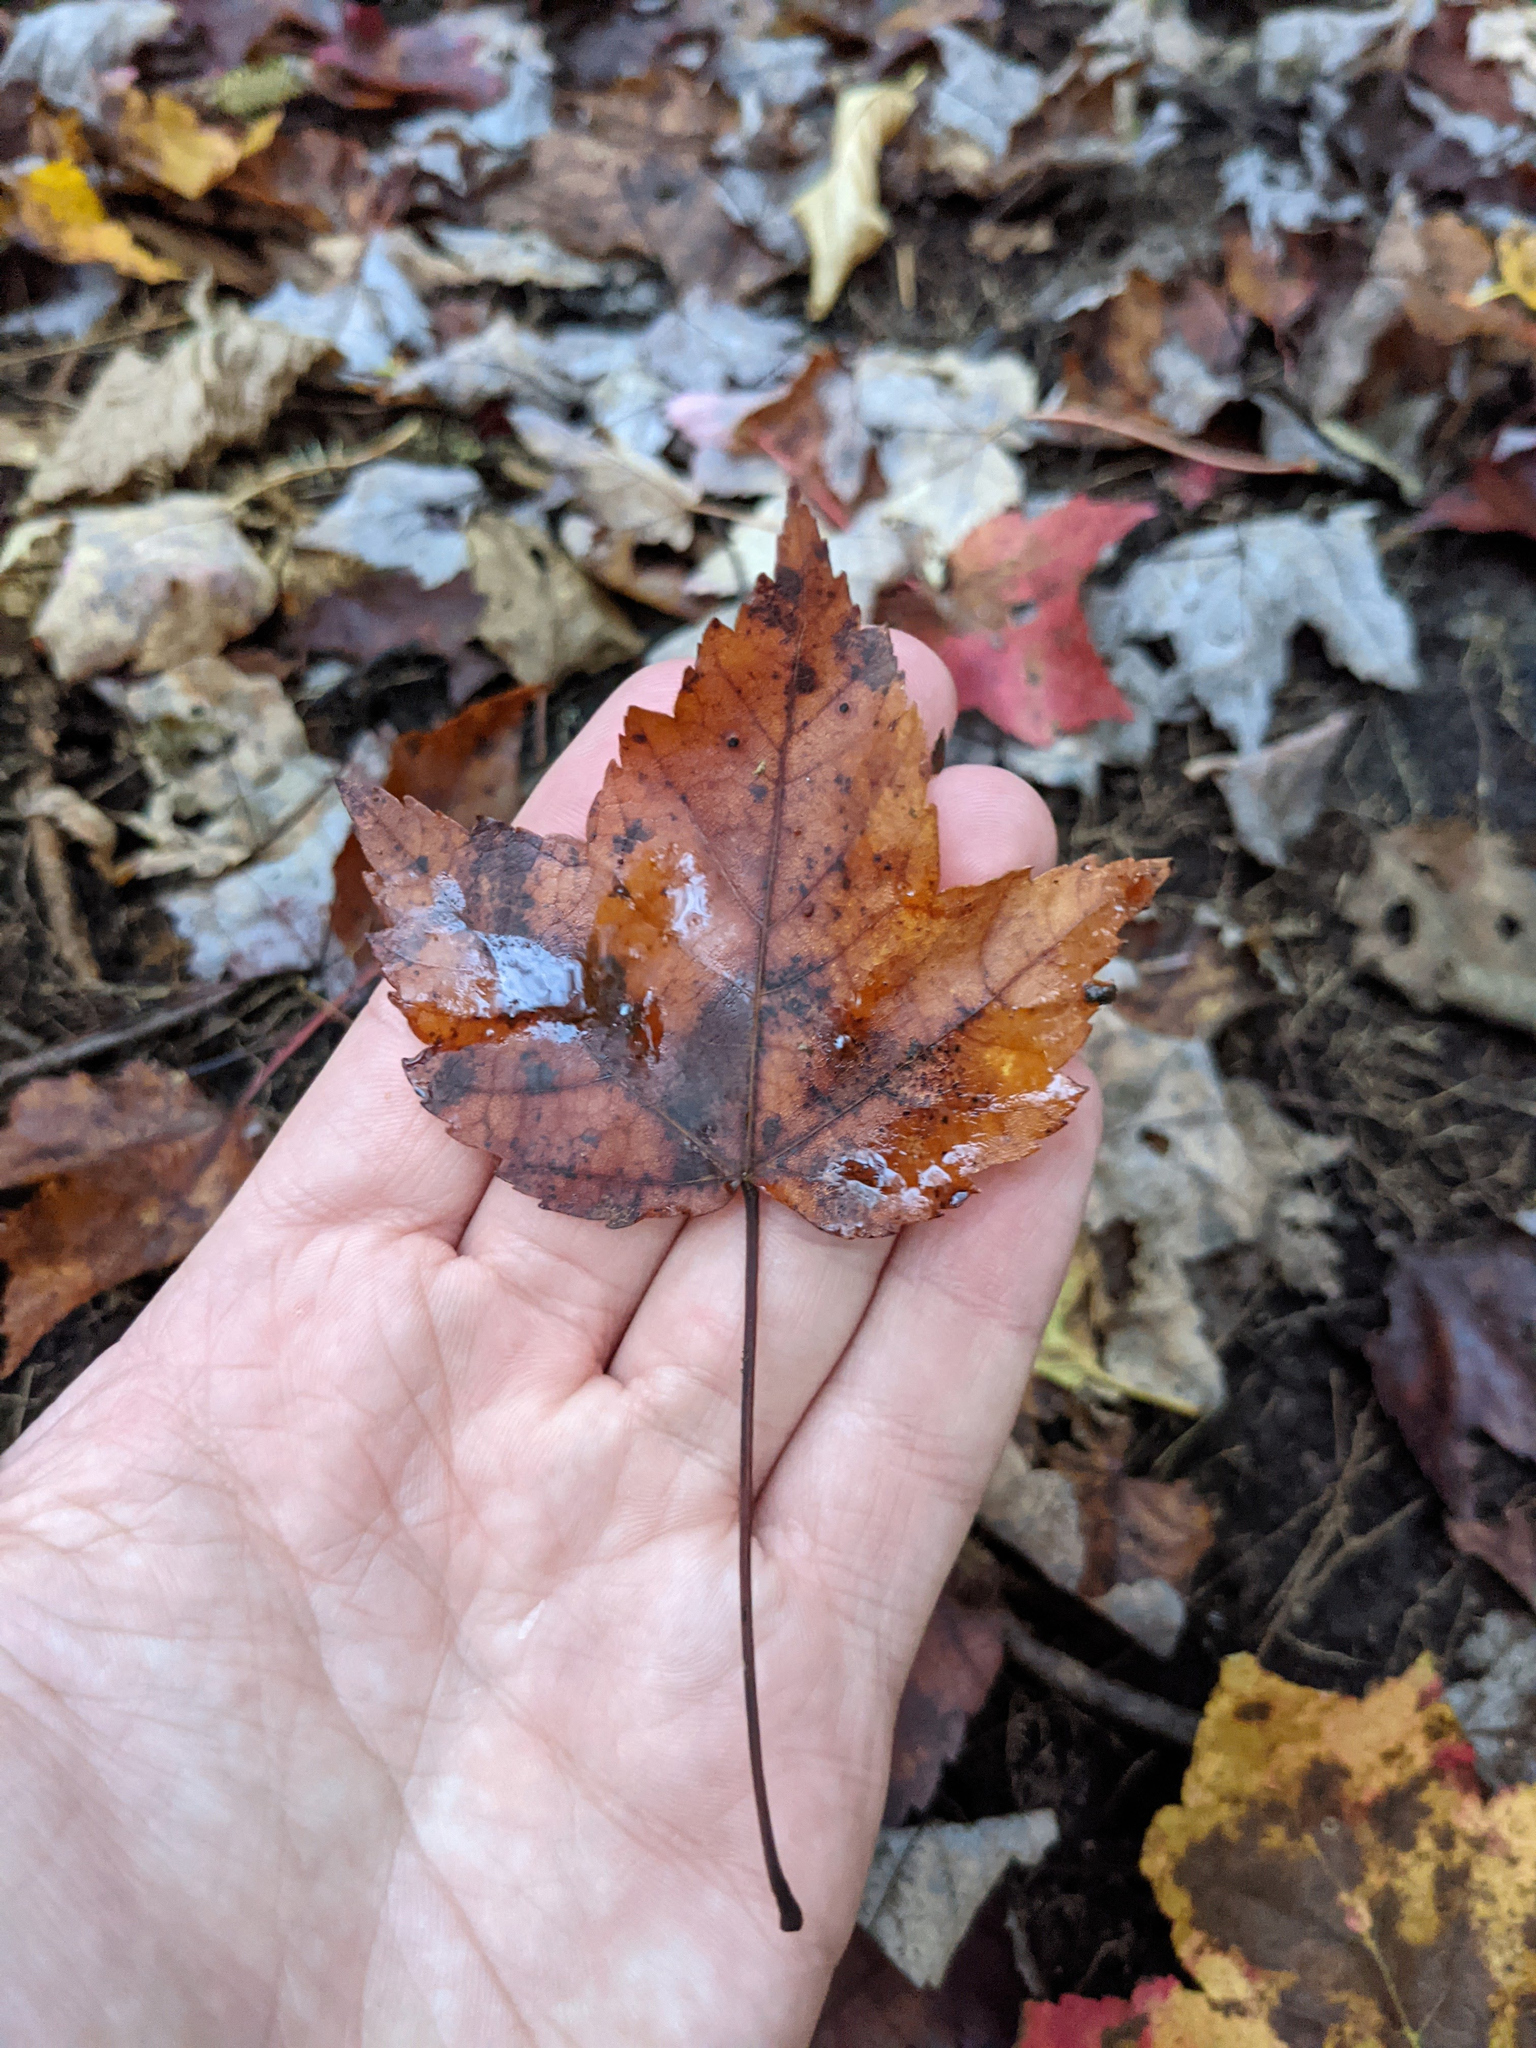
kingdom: Plantae
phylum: Tracheophyta
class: Magnoliopsida
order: Sapindales
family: Sapindaceae
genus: Acer
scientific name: Acer rubrum
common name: Red maple
